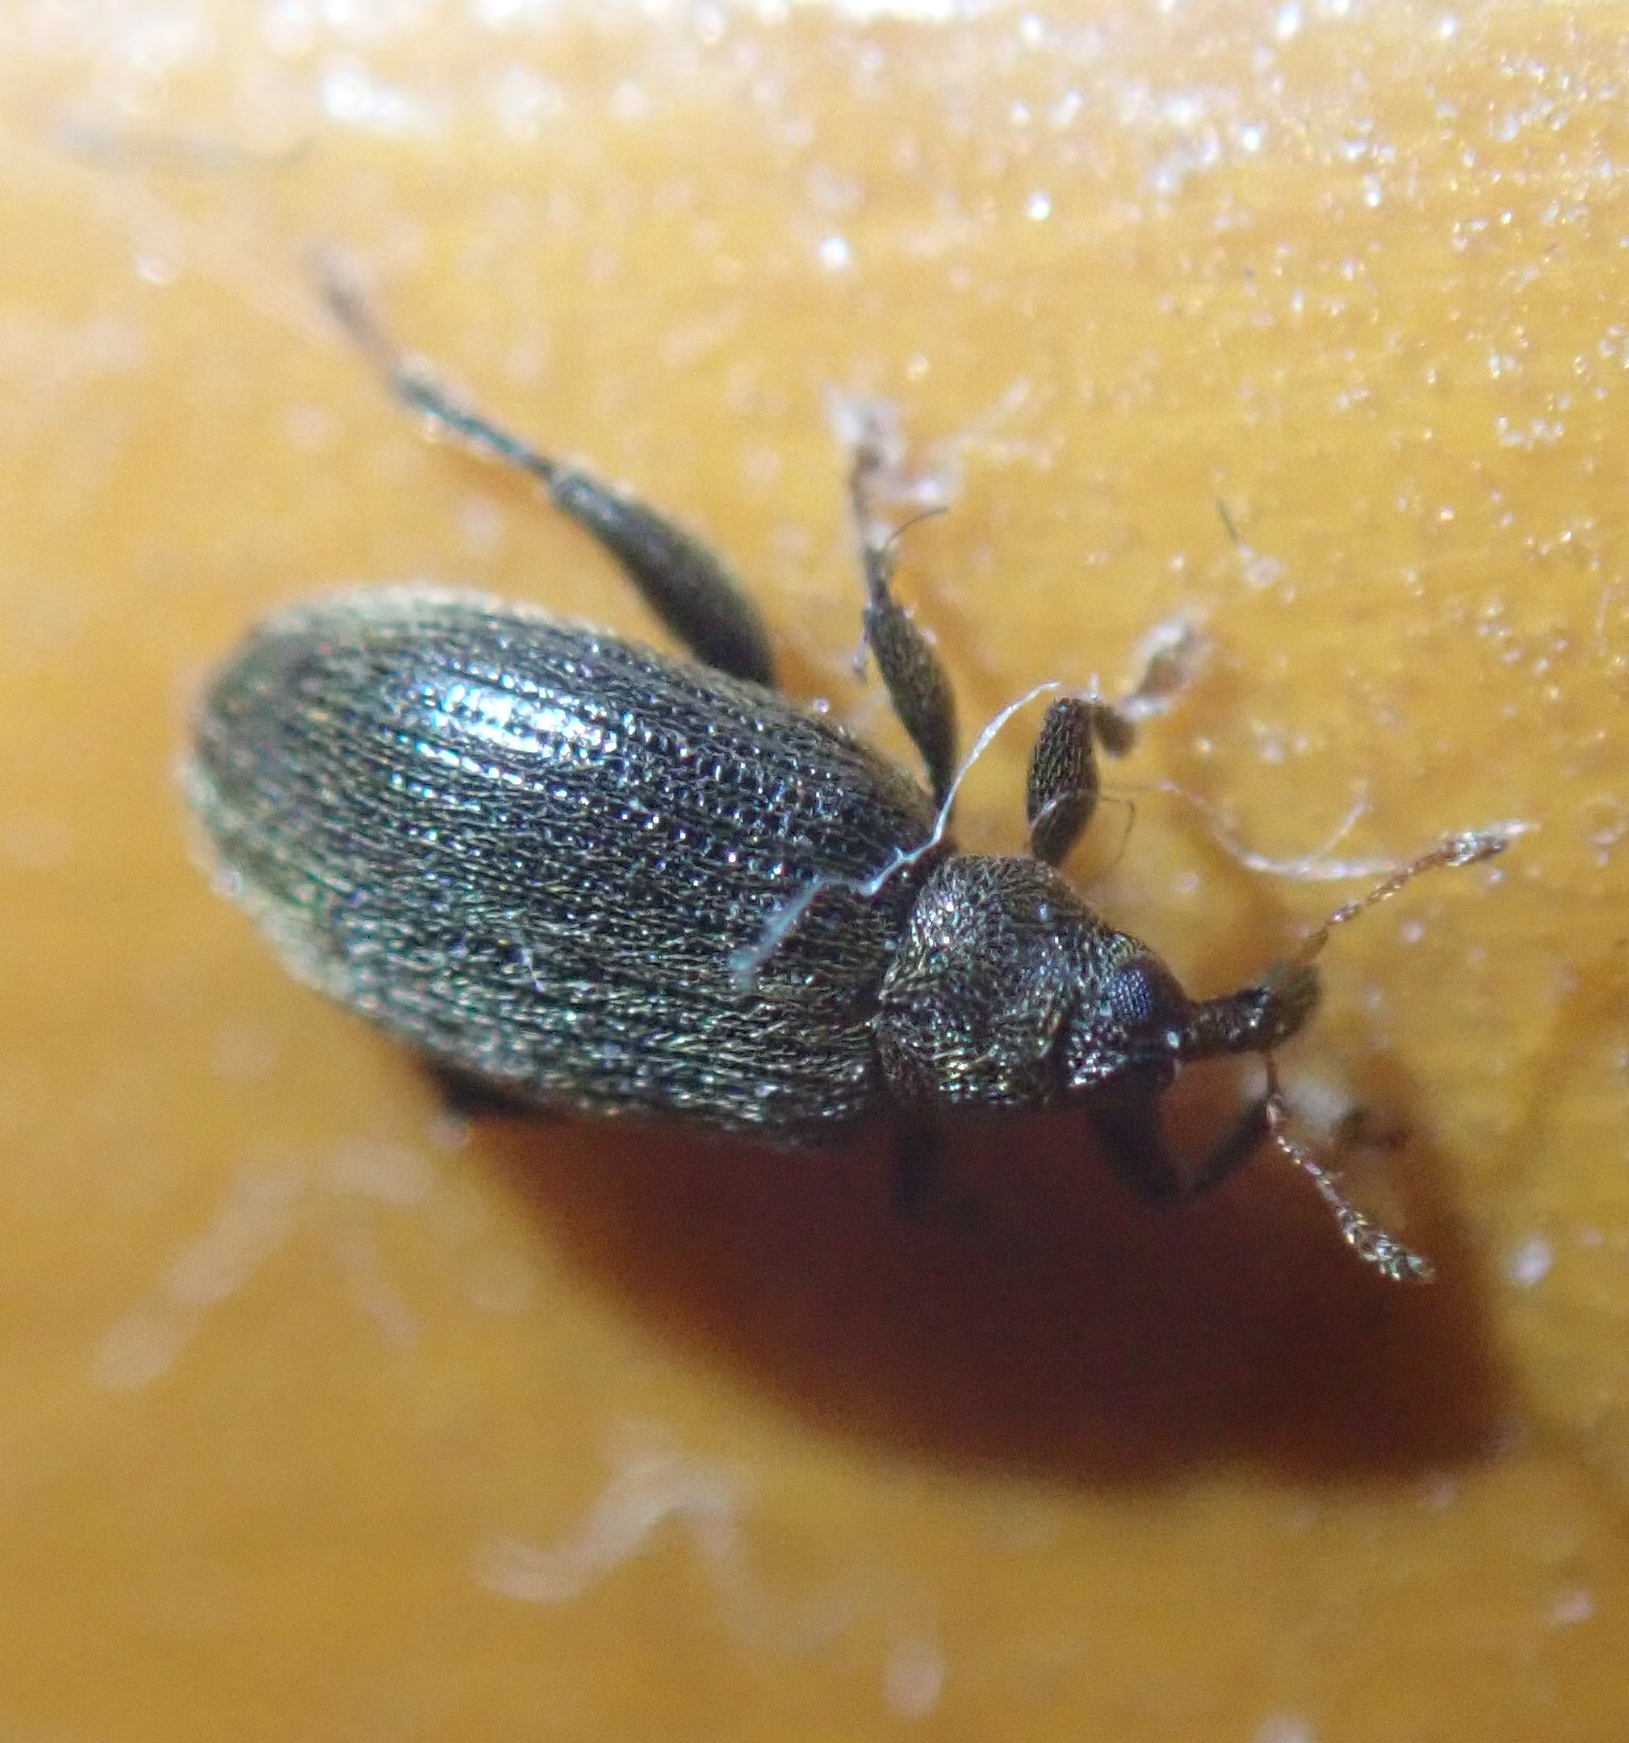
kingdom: Animalia
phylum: Arthropoda
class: Insecta
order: Coleoptera
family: Curculionidae
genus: Orchestes
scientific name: Orchestes fagi
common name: Beech leaf miner
